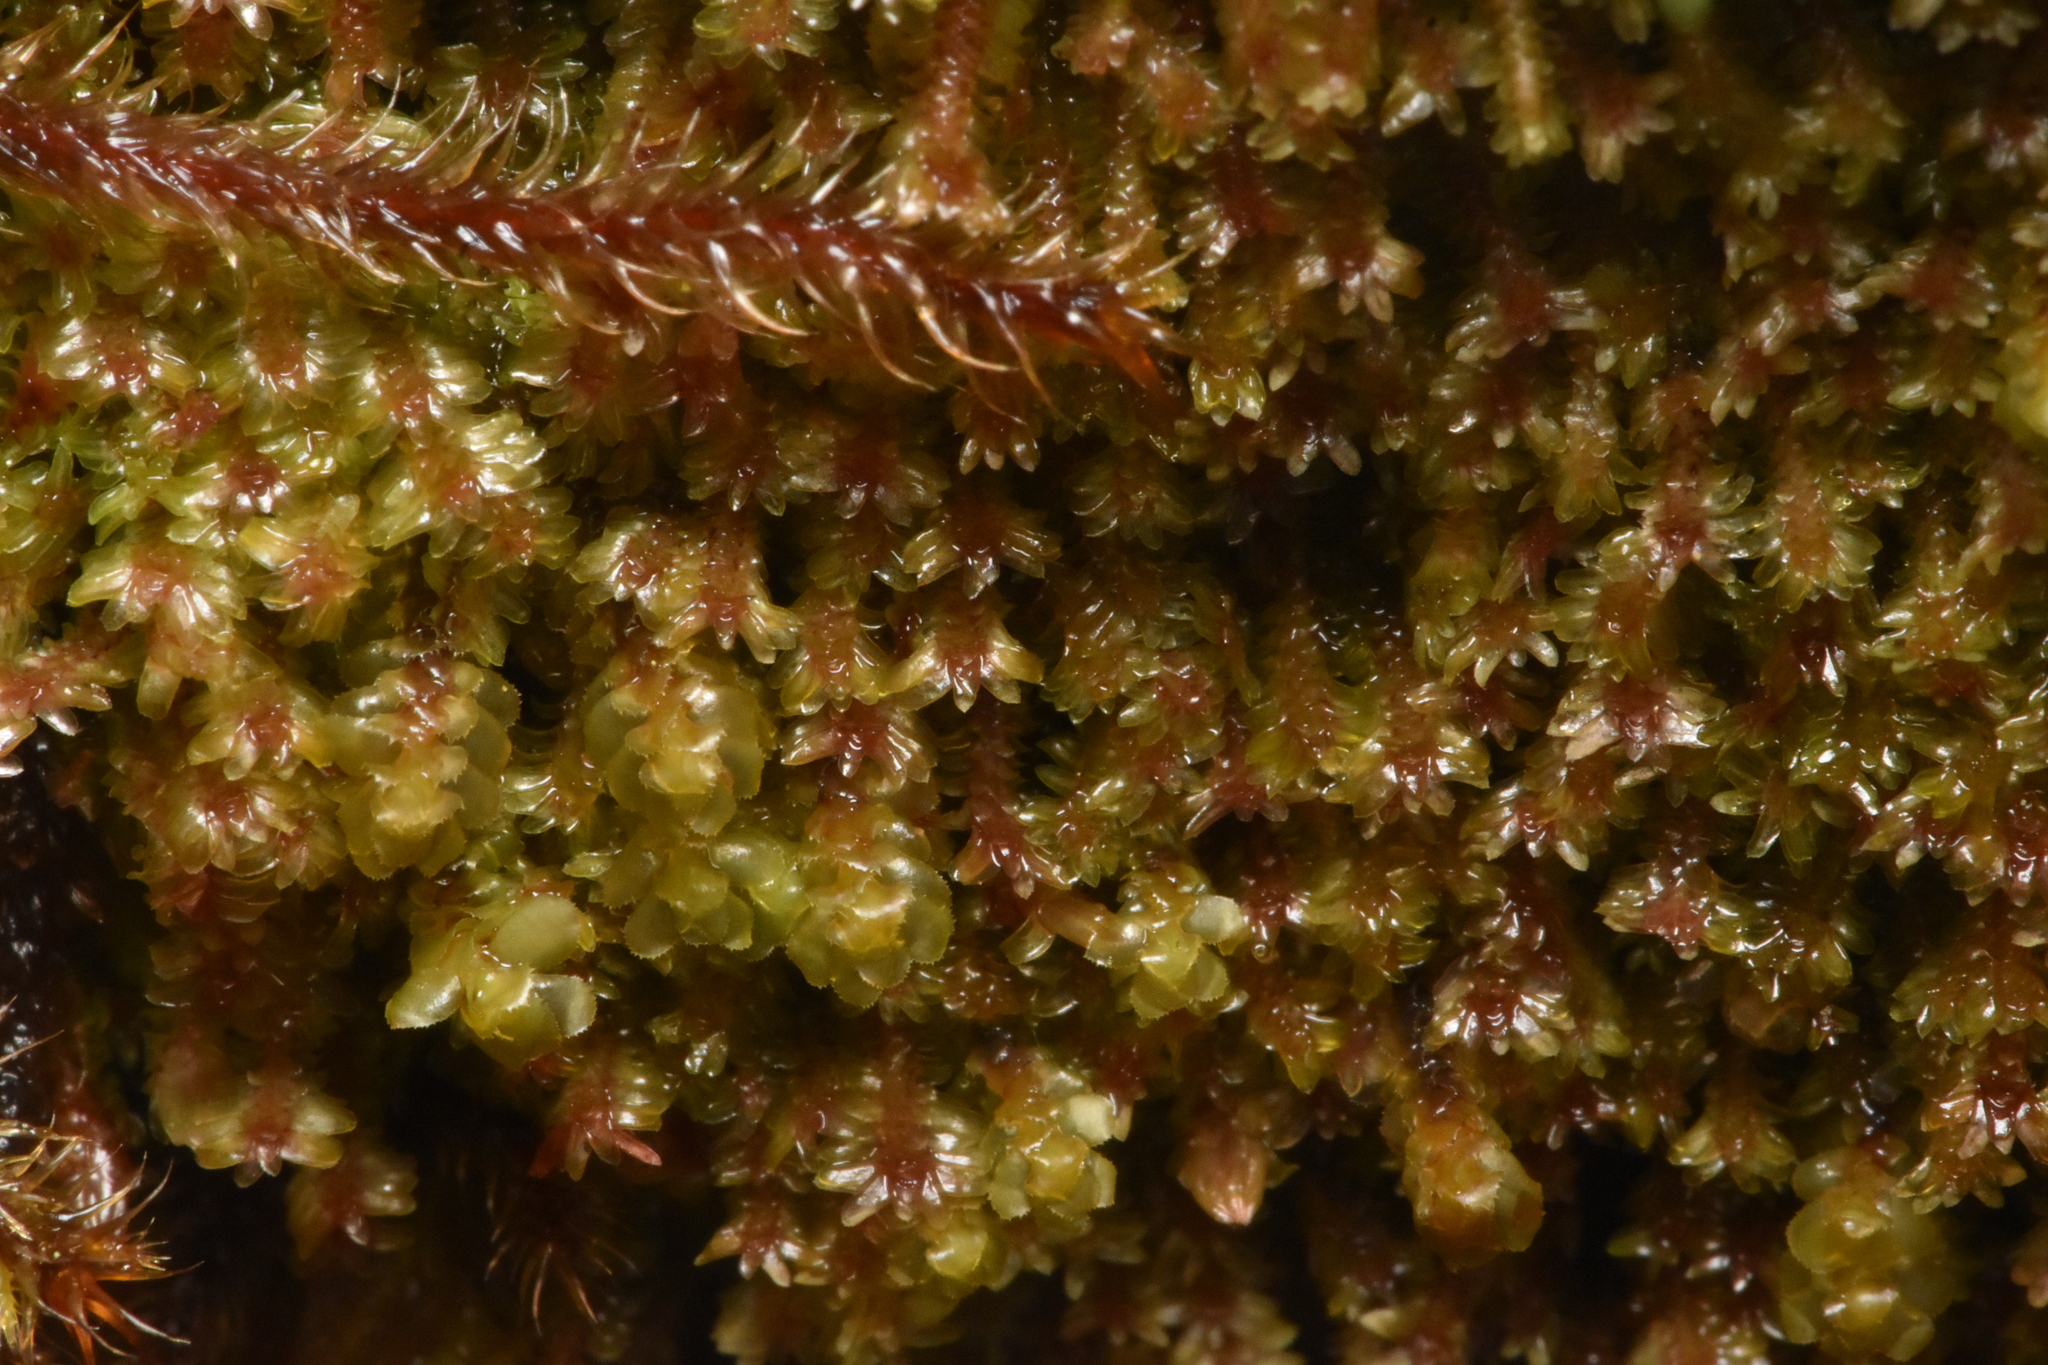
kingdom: Plantae
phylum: Marchantiophyta
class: Jungermanniopsida
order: Jungermanniales
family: Scapaniaceae
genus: Diplophyllum
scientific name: Diplophyllum albicans
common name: White earwort
